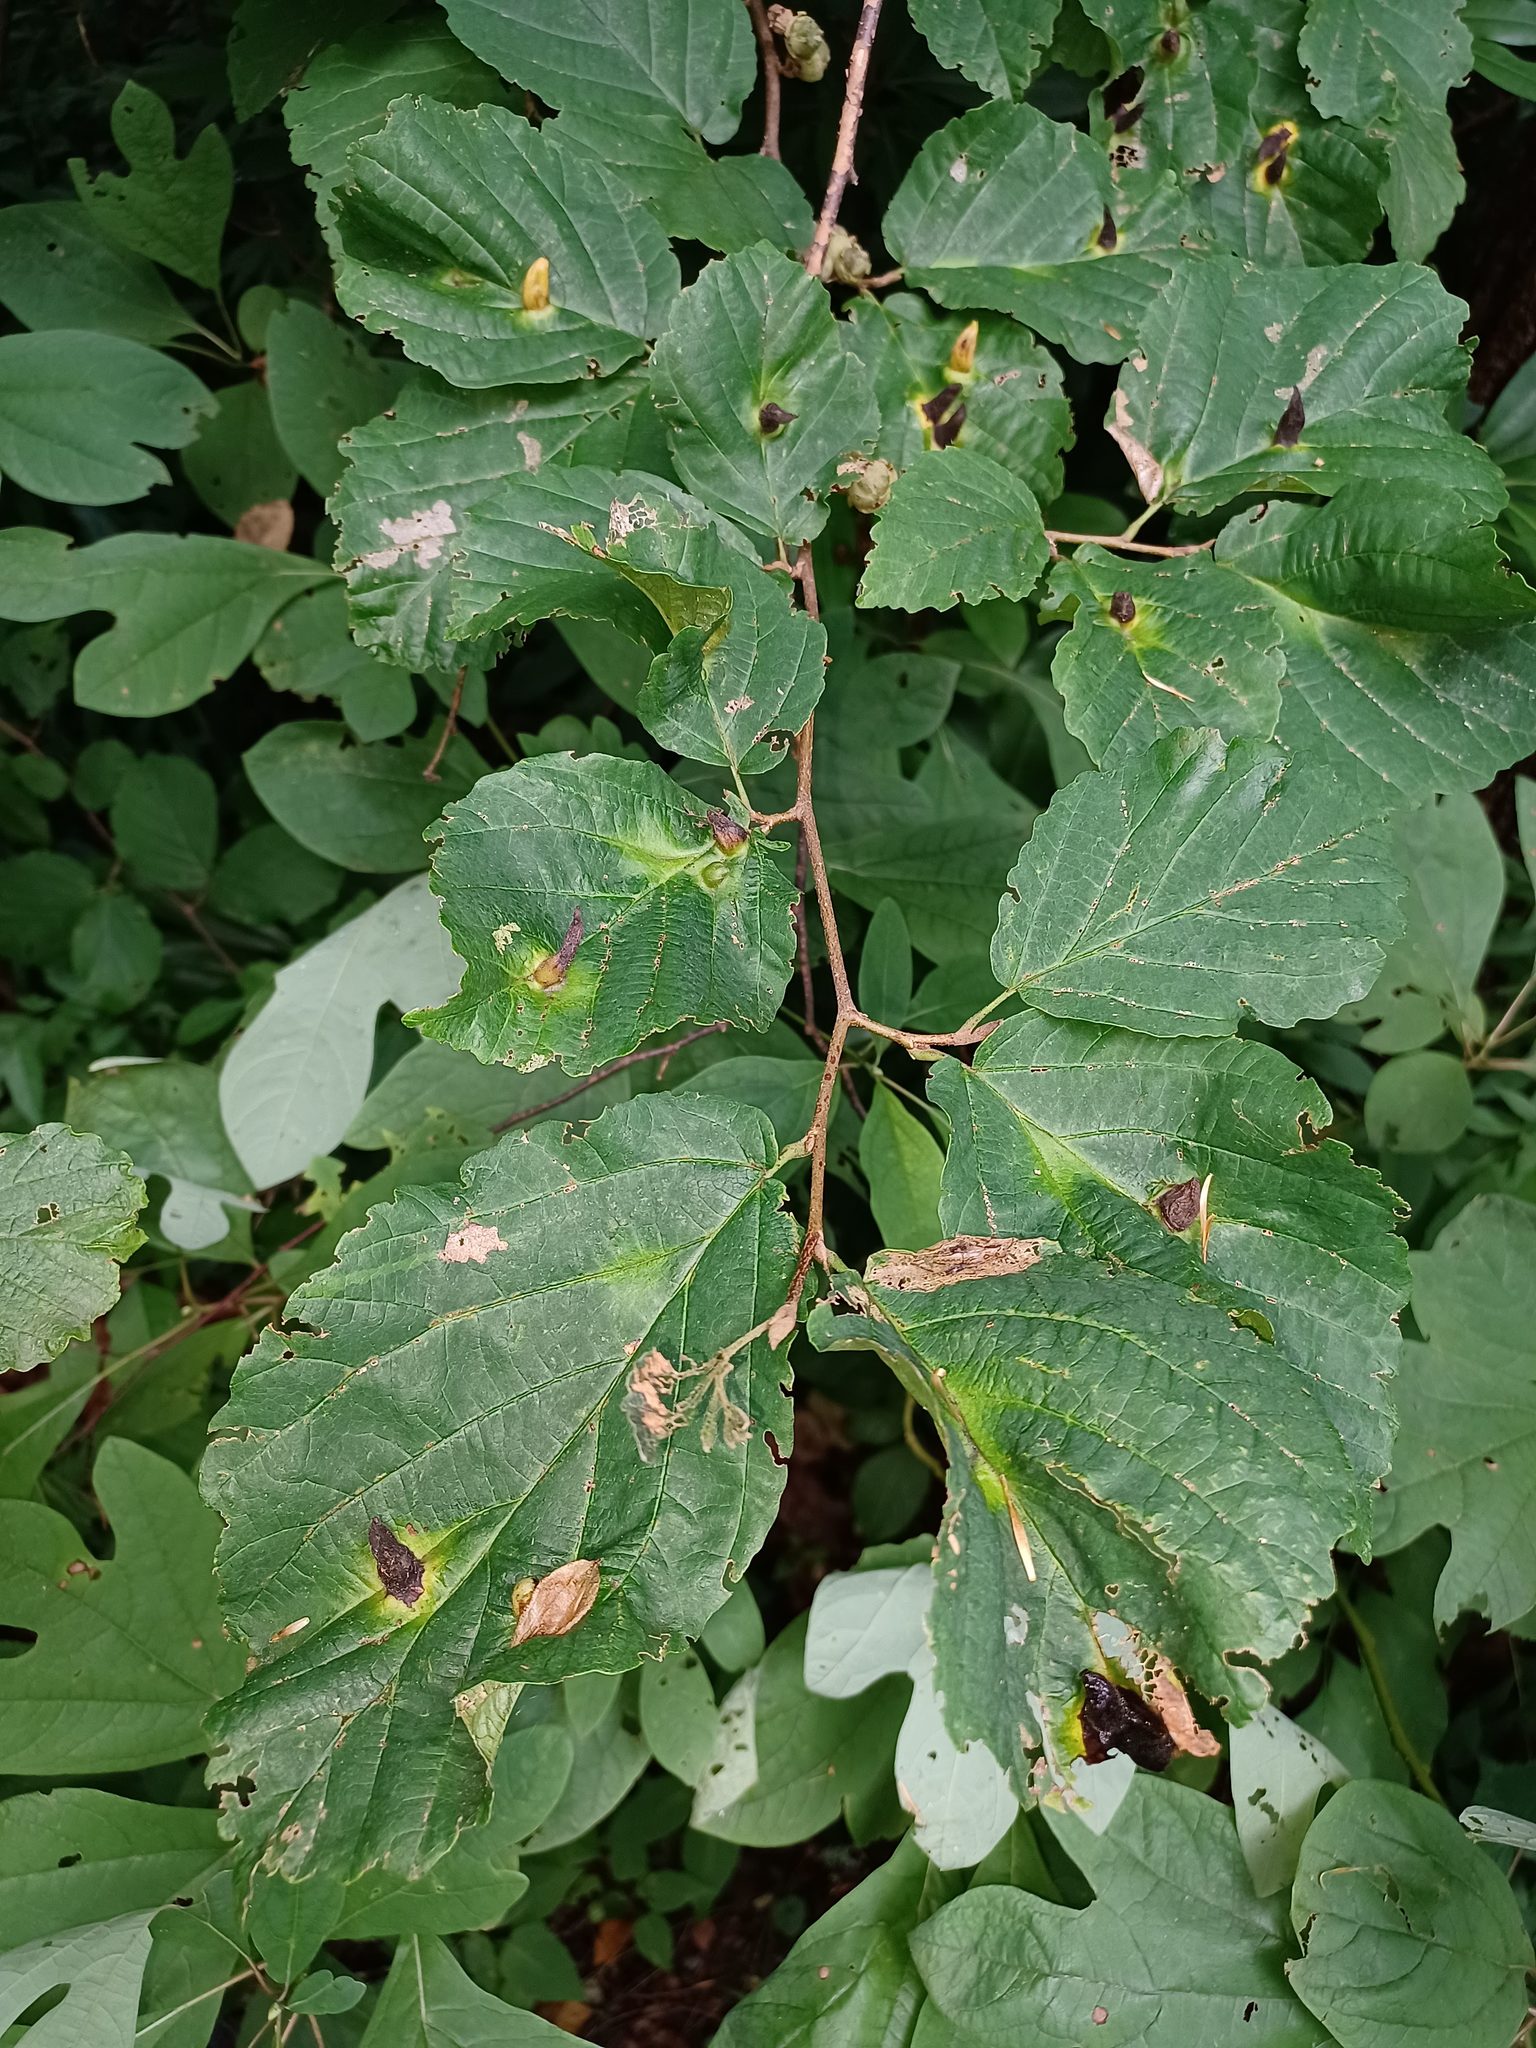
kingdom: Plantae
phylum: Tracheophyta
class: Magnoliopsida
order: Saxifragales
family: Hamamelidaceae
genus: Hamamelis
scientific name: Hamamelis virginiana
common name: Witch-hazel
